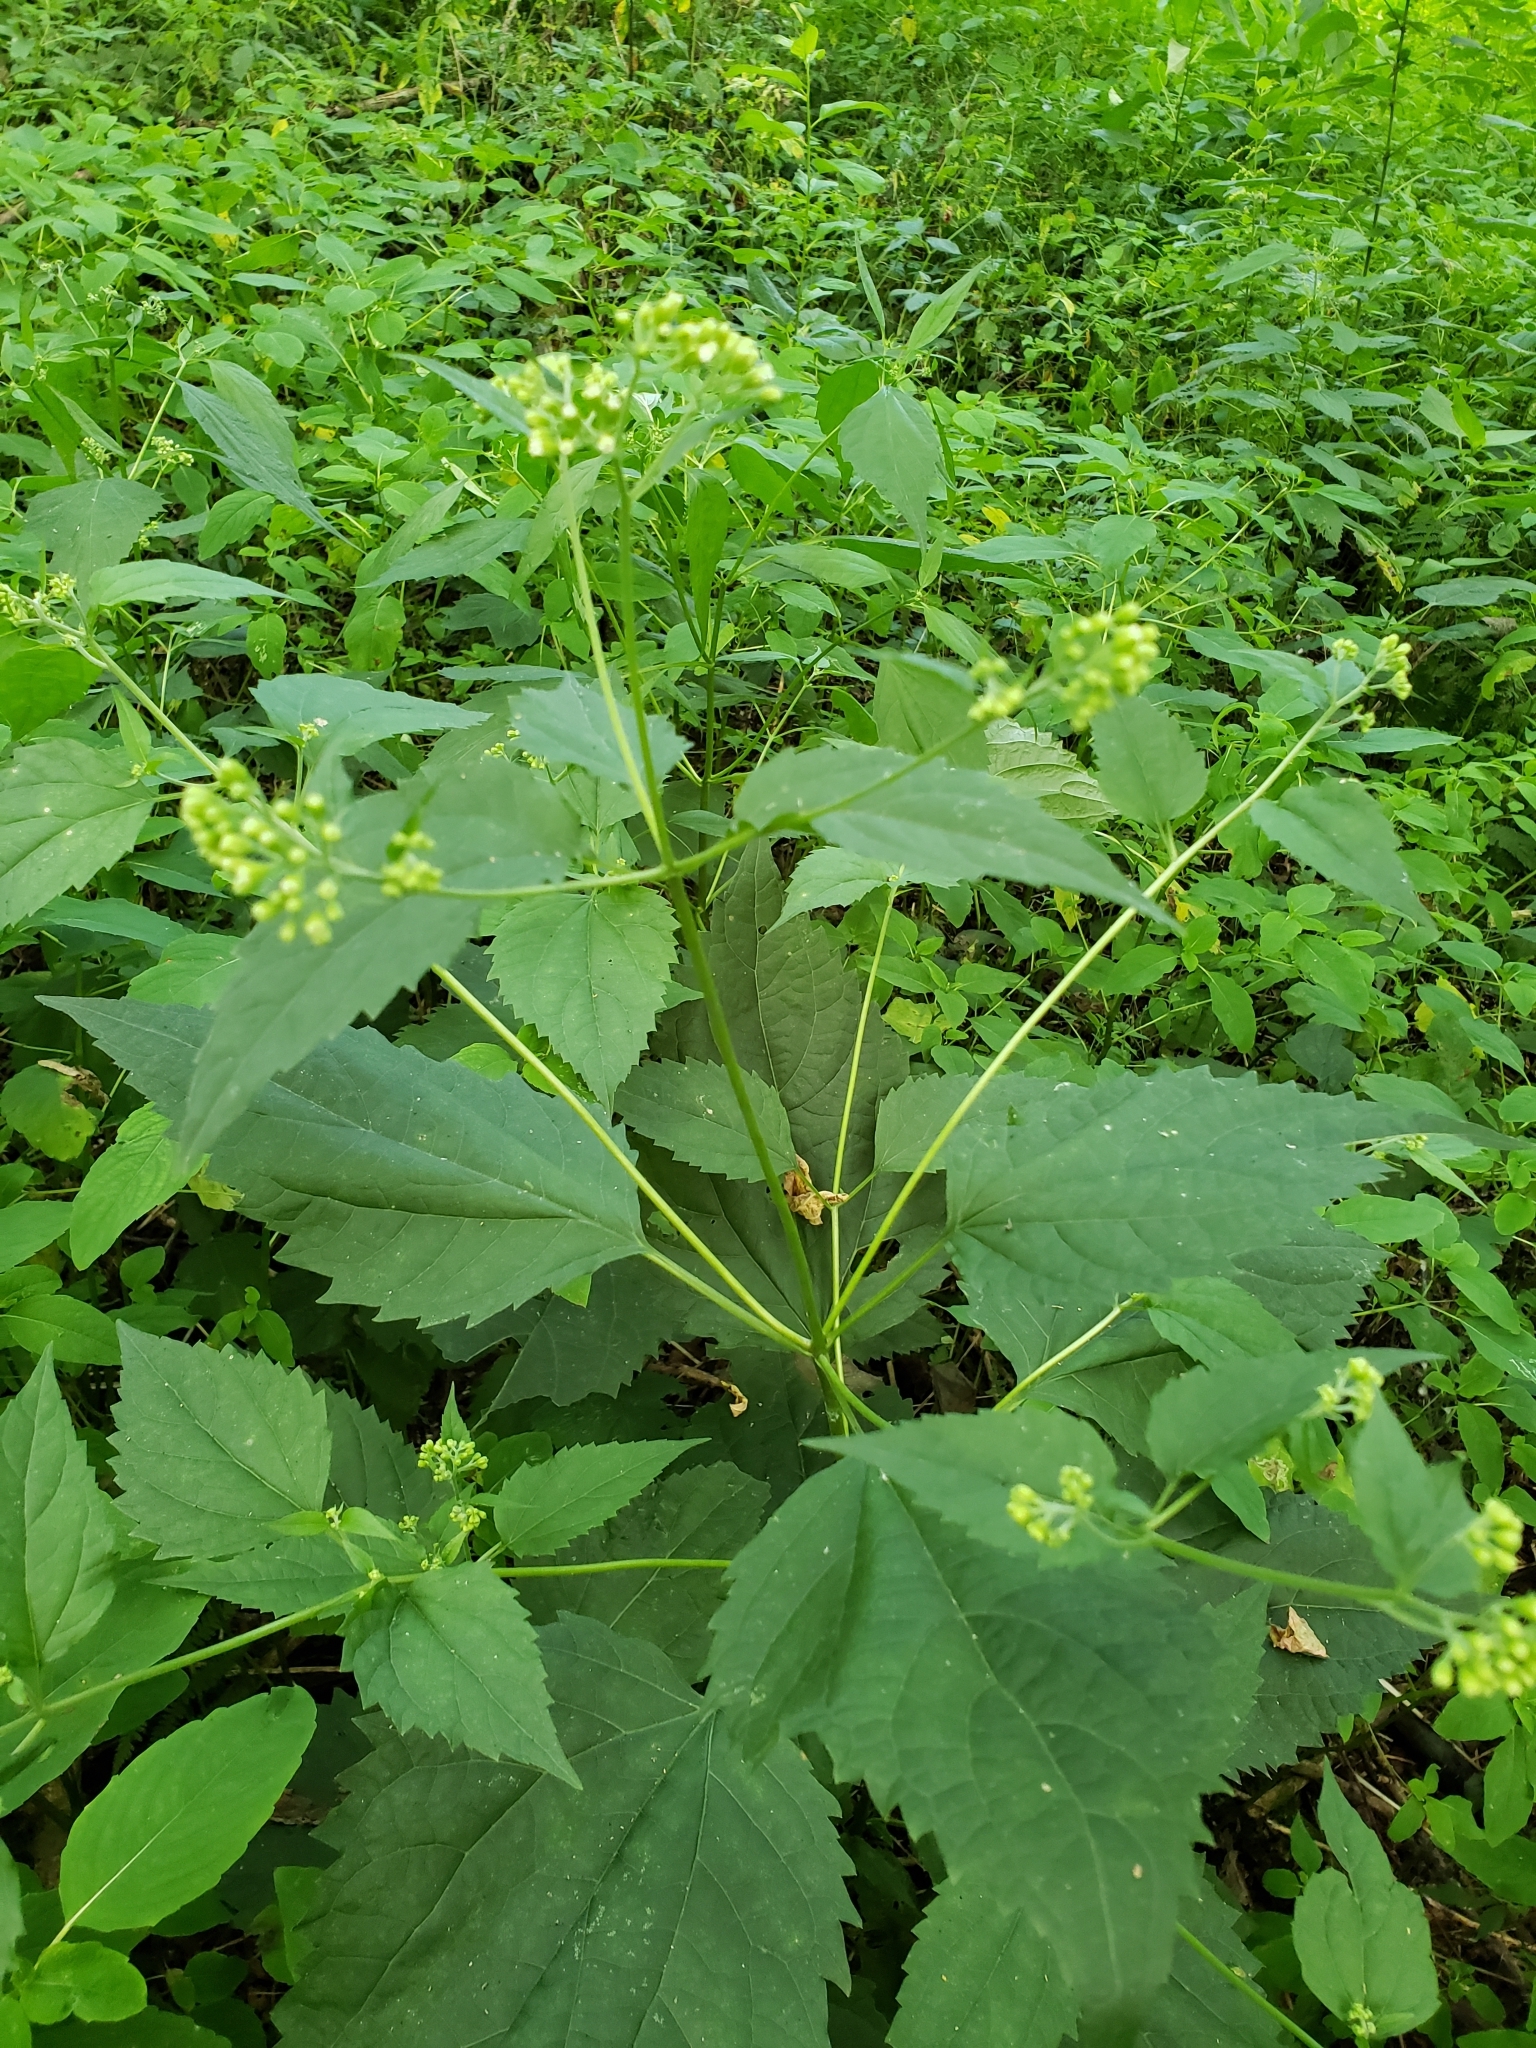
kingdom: Plantae
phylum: Tracheophyta
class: Magnoliopsida
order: Asterales
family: Asteraceae
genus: Ageratina
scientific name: Ageratina altissima
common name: White snakeroot
